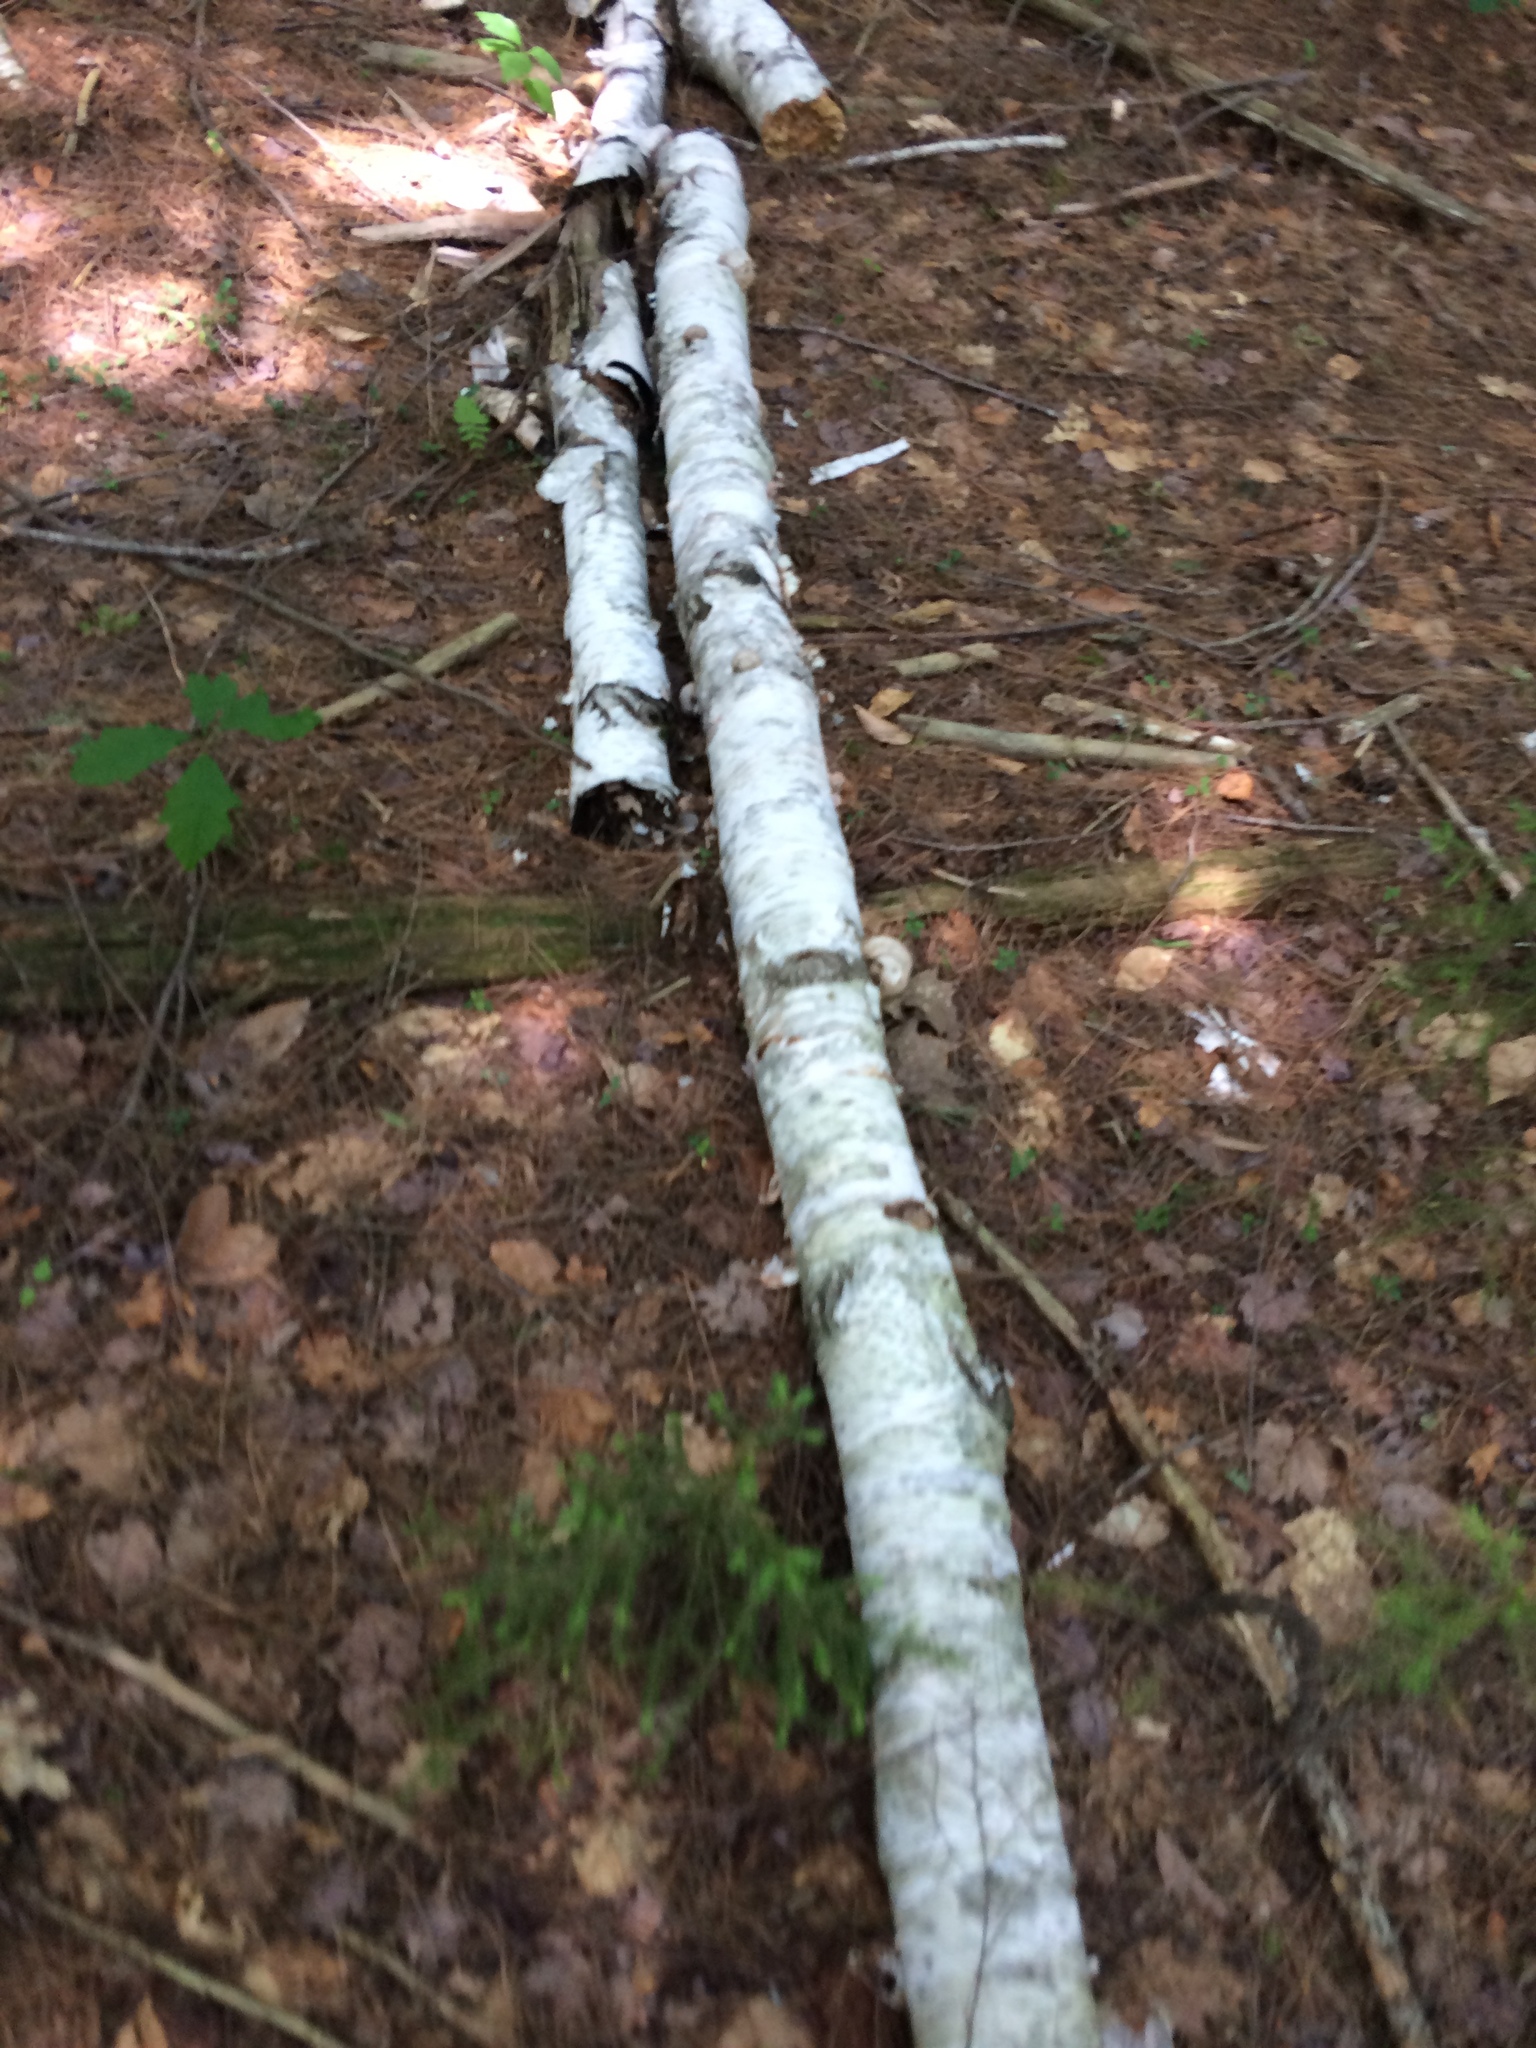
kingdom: Plantae
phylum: Tracheophyta
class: Magnoliopsida
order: Fagales
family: Betulaceae
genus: Betula
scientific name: Betula papyrifera
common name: Paper birch
